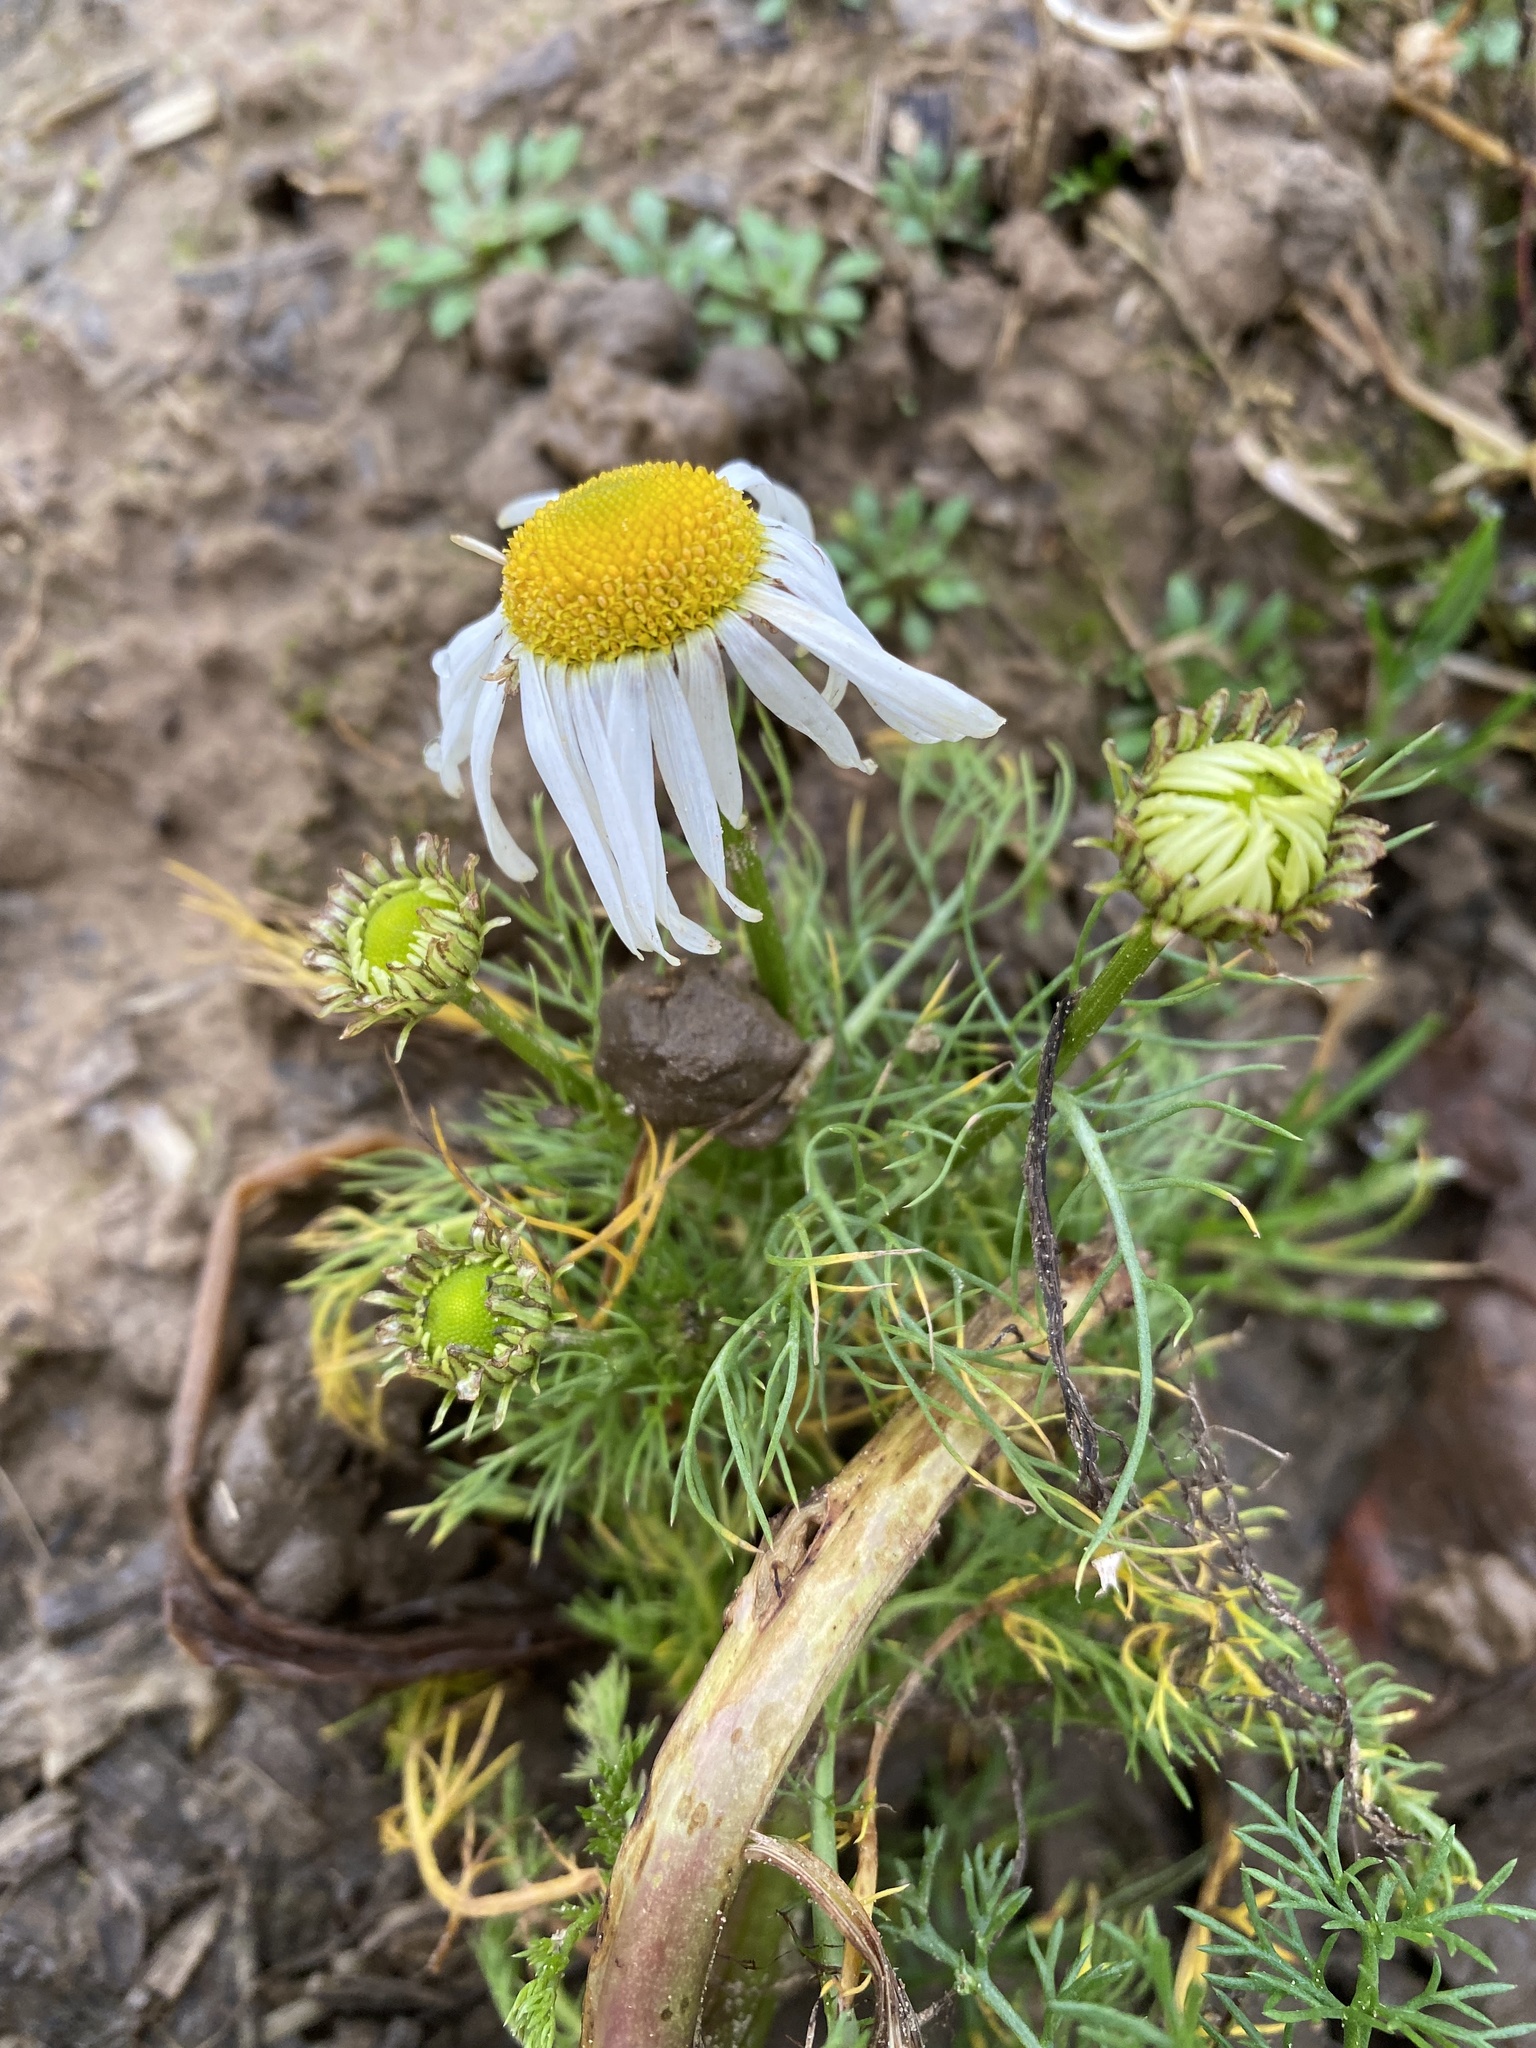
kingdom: Plantae
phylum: Tracheophyta
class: Magnoliopsida
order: Asterales
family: Asteraceae
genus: Tripleurospermum
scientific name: Tripleurospermum inodorum
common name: Scentless mayweed
